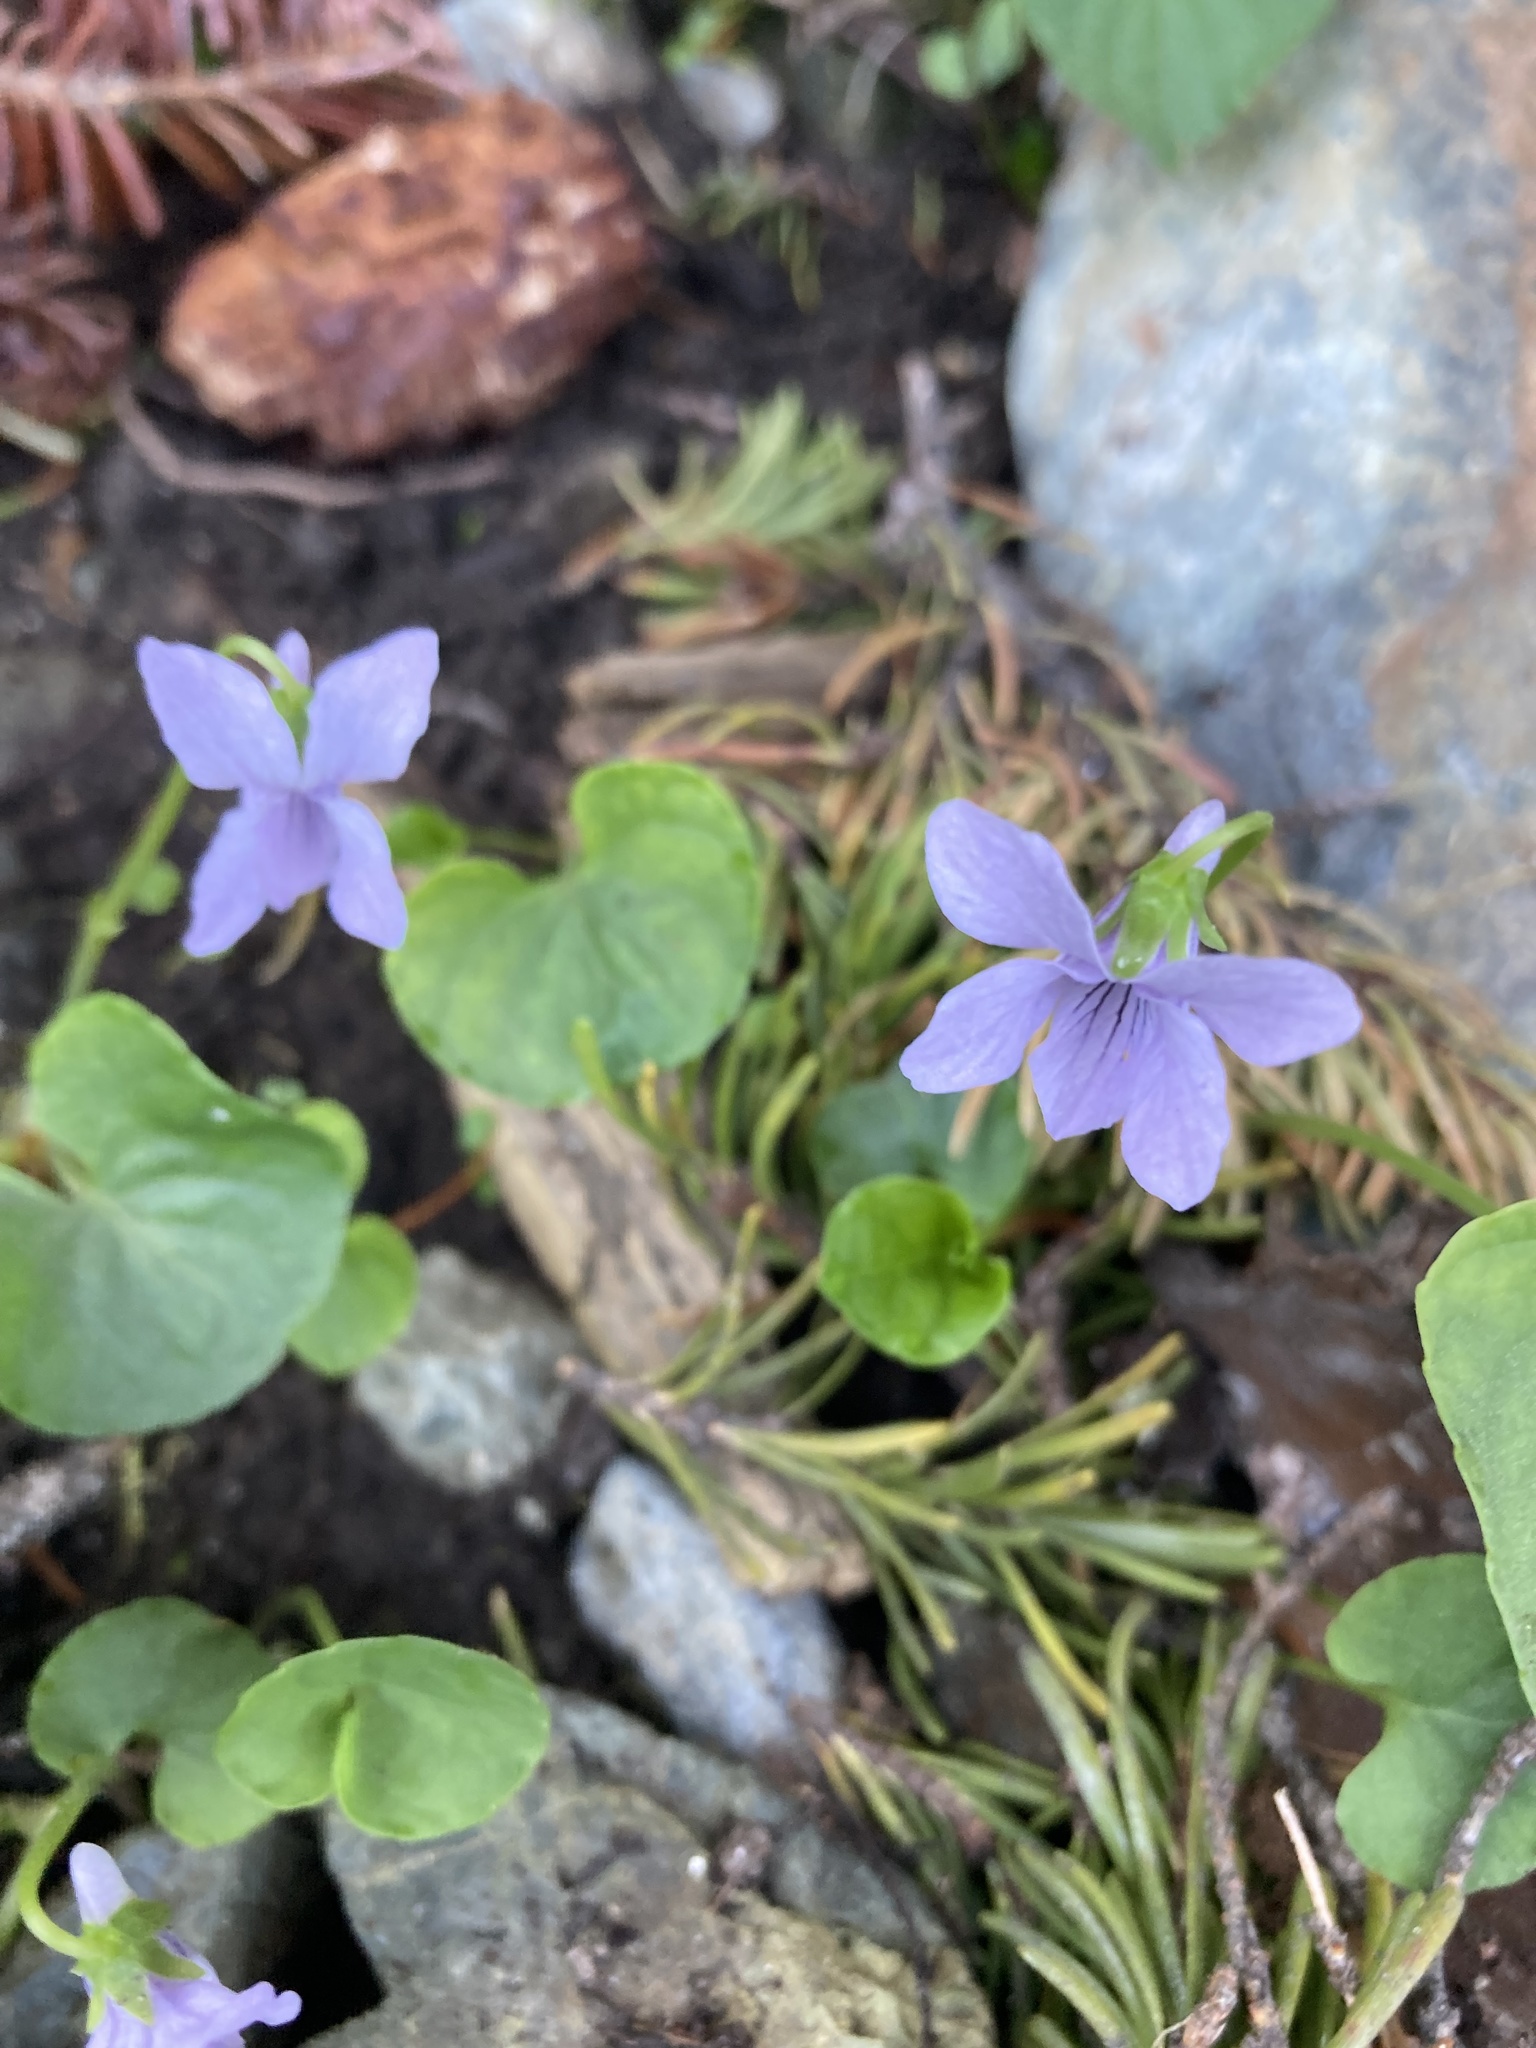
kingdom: Plantae
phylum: Tracheophyta
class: Magnoliopsida
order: Malpighiales
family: Violaceae
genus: Viola
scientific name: Viola palustris
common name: Marsh violet
